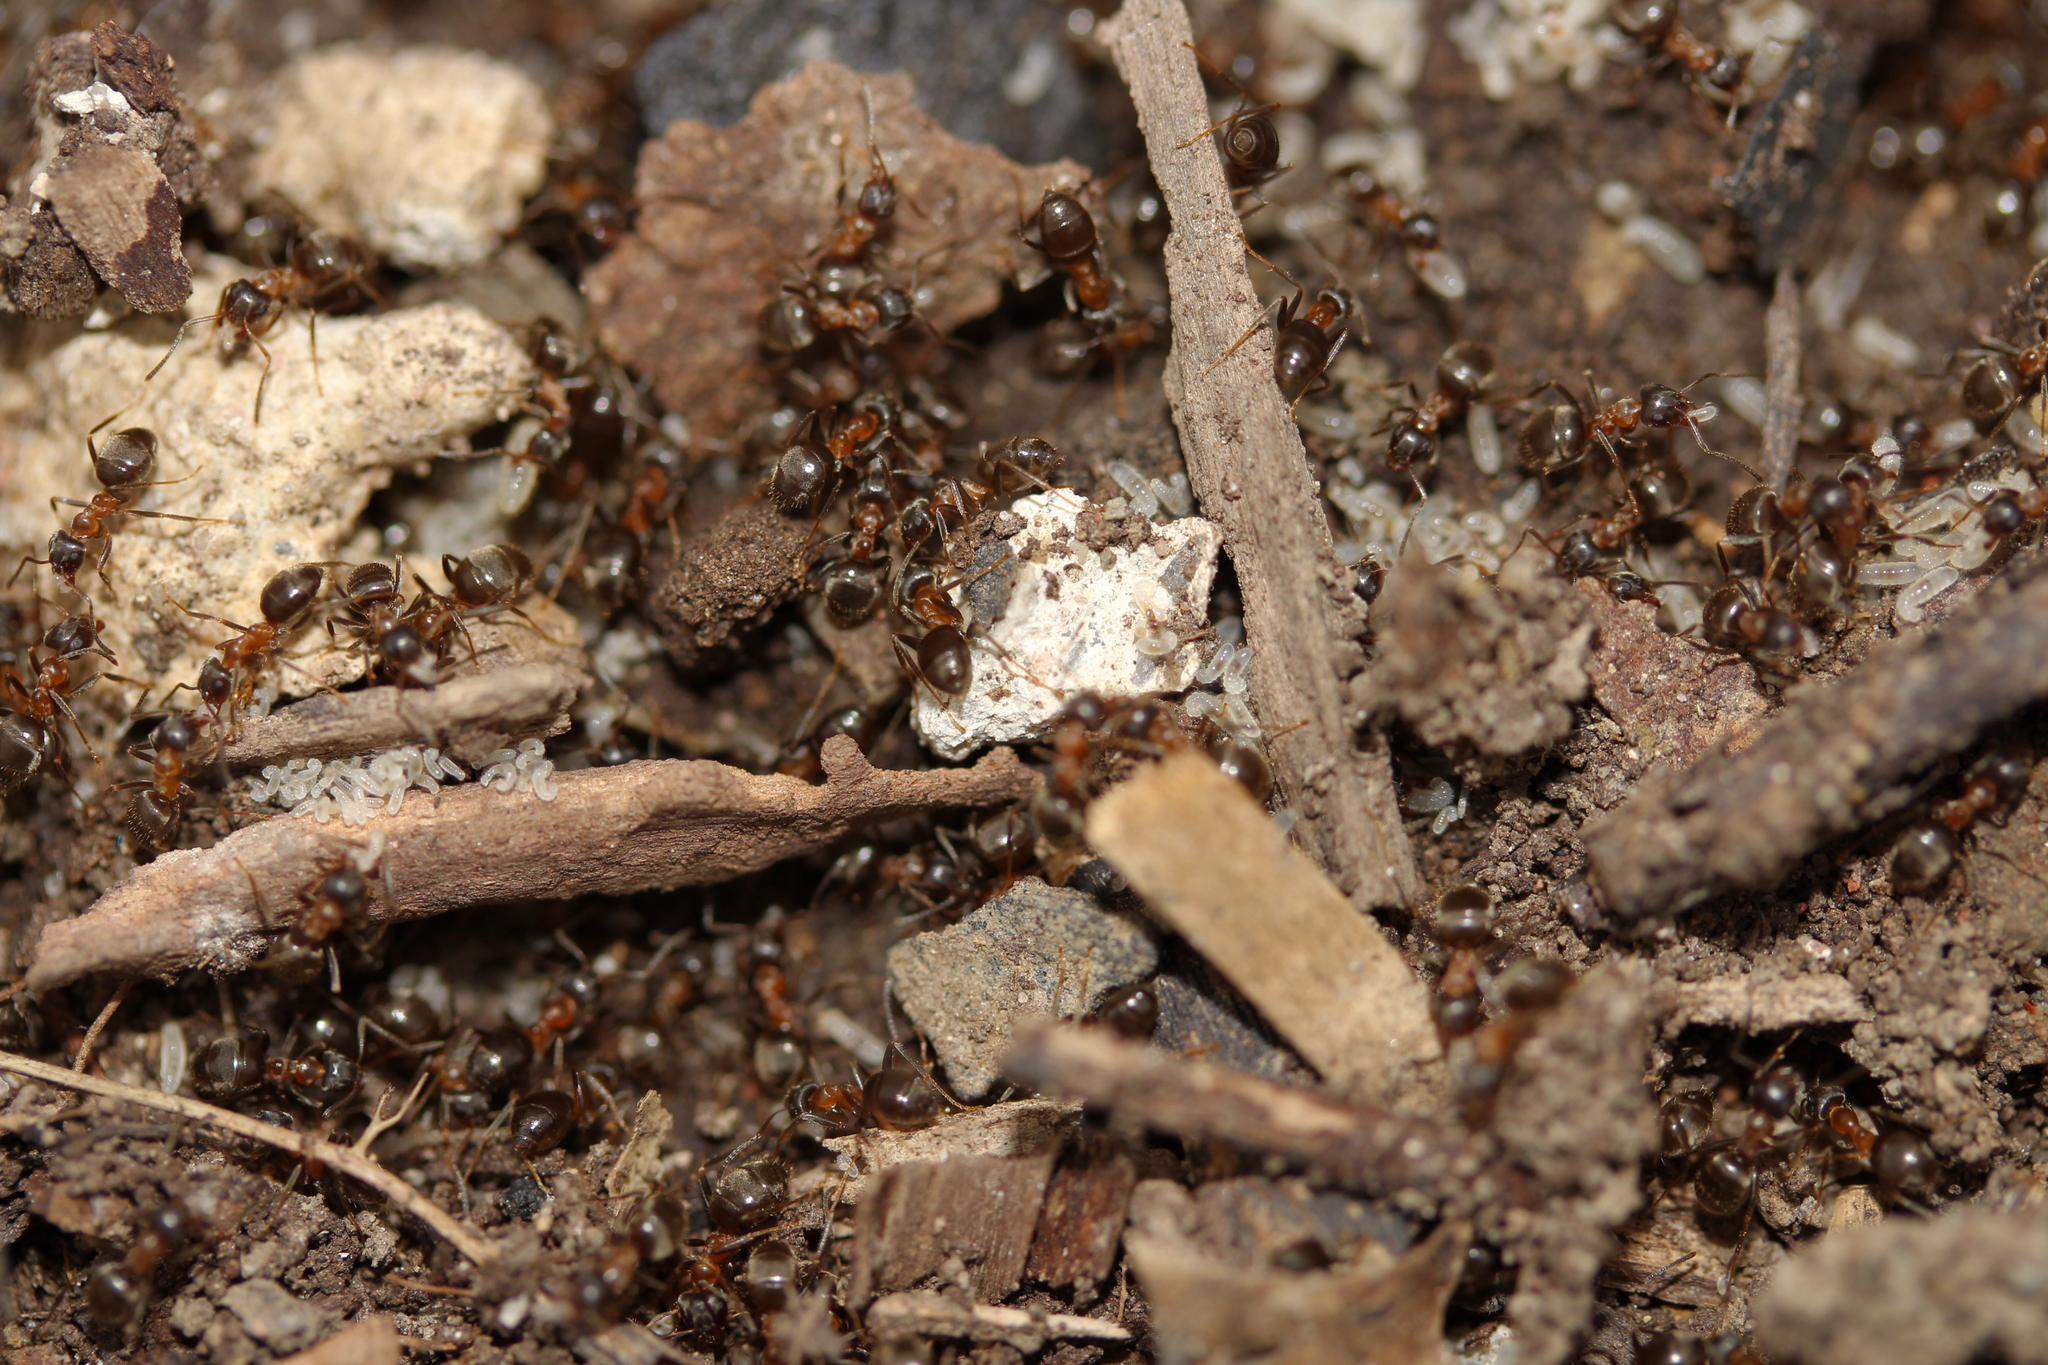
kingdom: Animalia
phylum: Arthropoda
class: Insecta
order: Hymenoptera
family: Formicidae
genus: Lasius
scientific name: Lasius emarginatus
